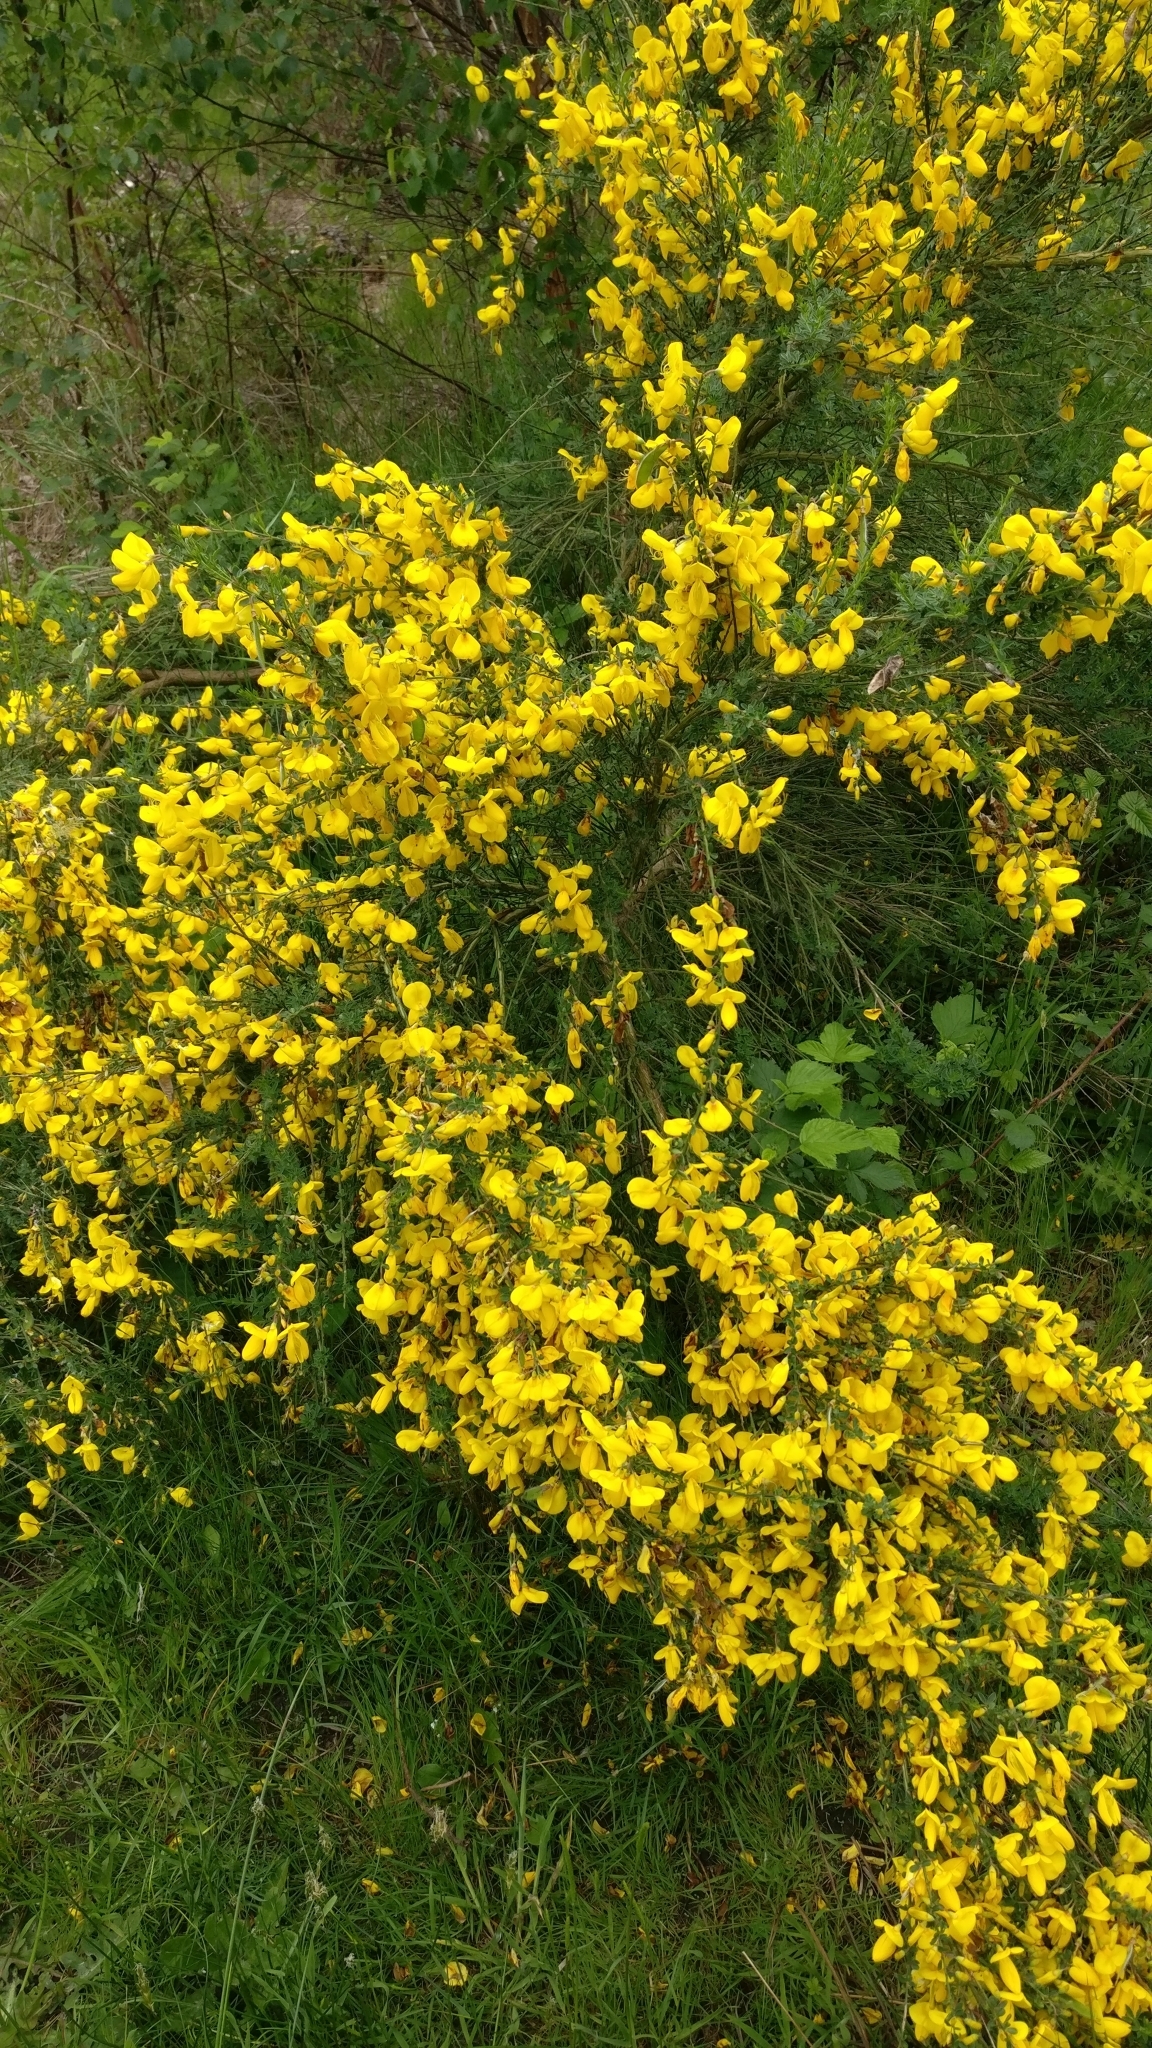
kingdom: Plantae
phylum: Tracheophyta
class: Magnoliopsida
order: Fabales
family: Fabaceae
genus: Cytisus
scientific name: Cytisus scoparius
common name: Scotch broom
